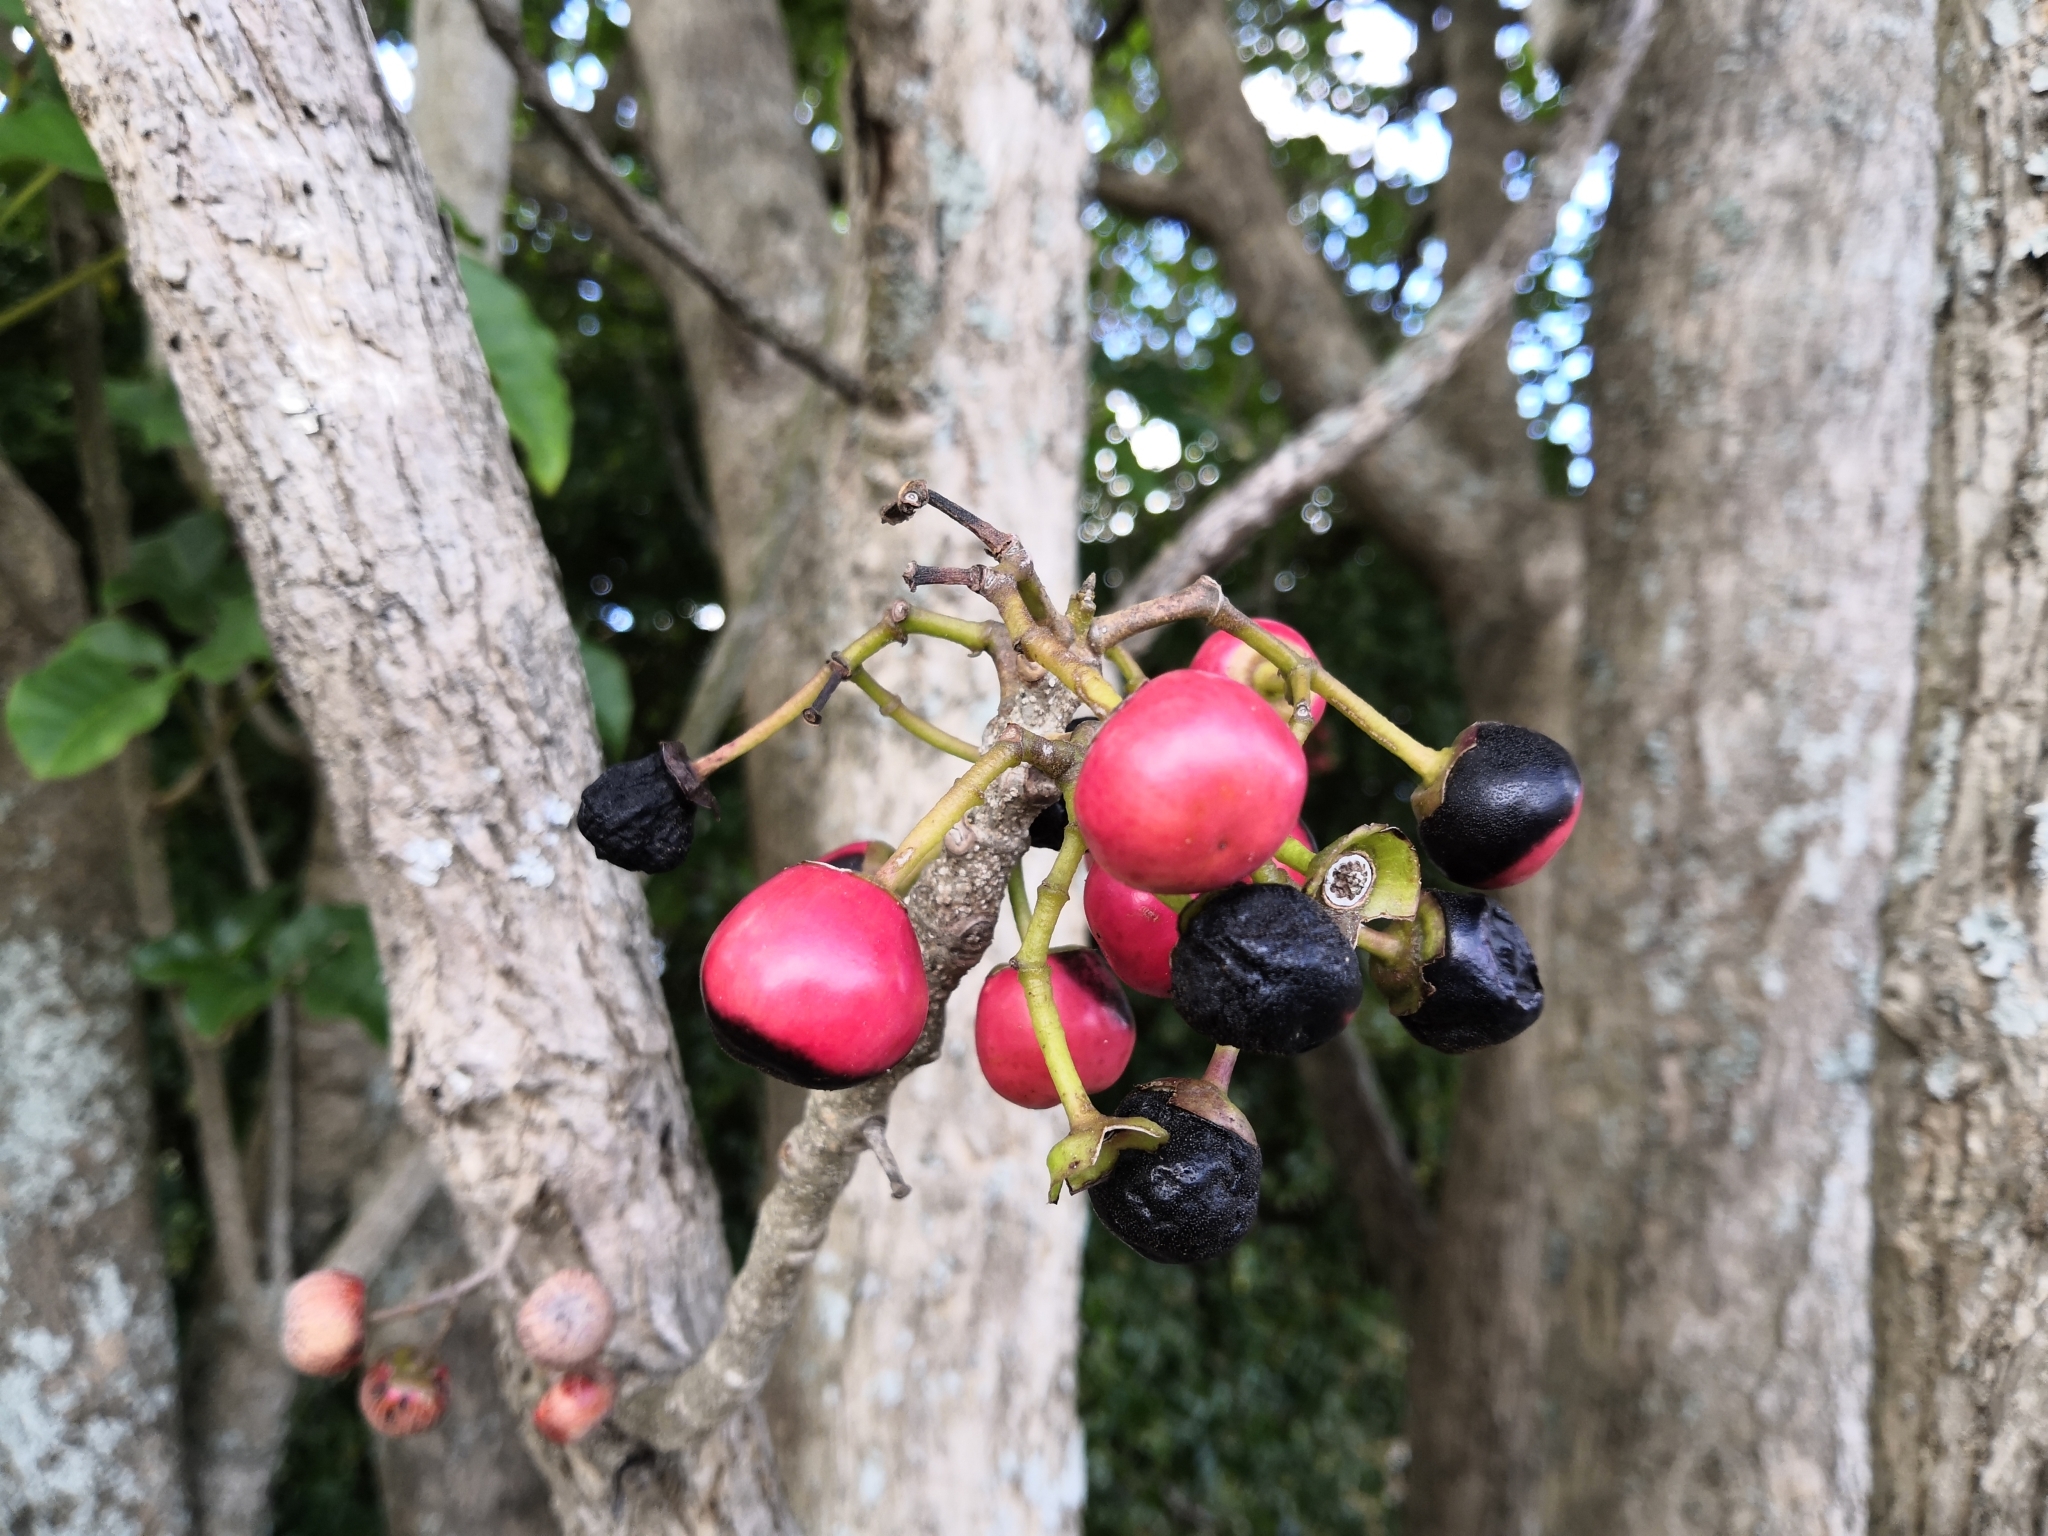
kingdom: Plantae
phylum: Tracheophyta
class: Magnoliopsida
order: Lamiales
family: Lamiaceae
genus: Vitex
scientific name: Vitex lucens
